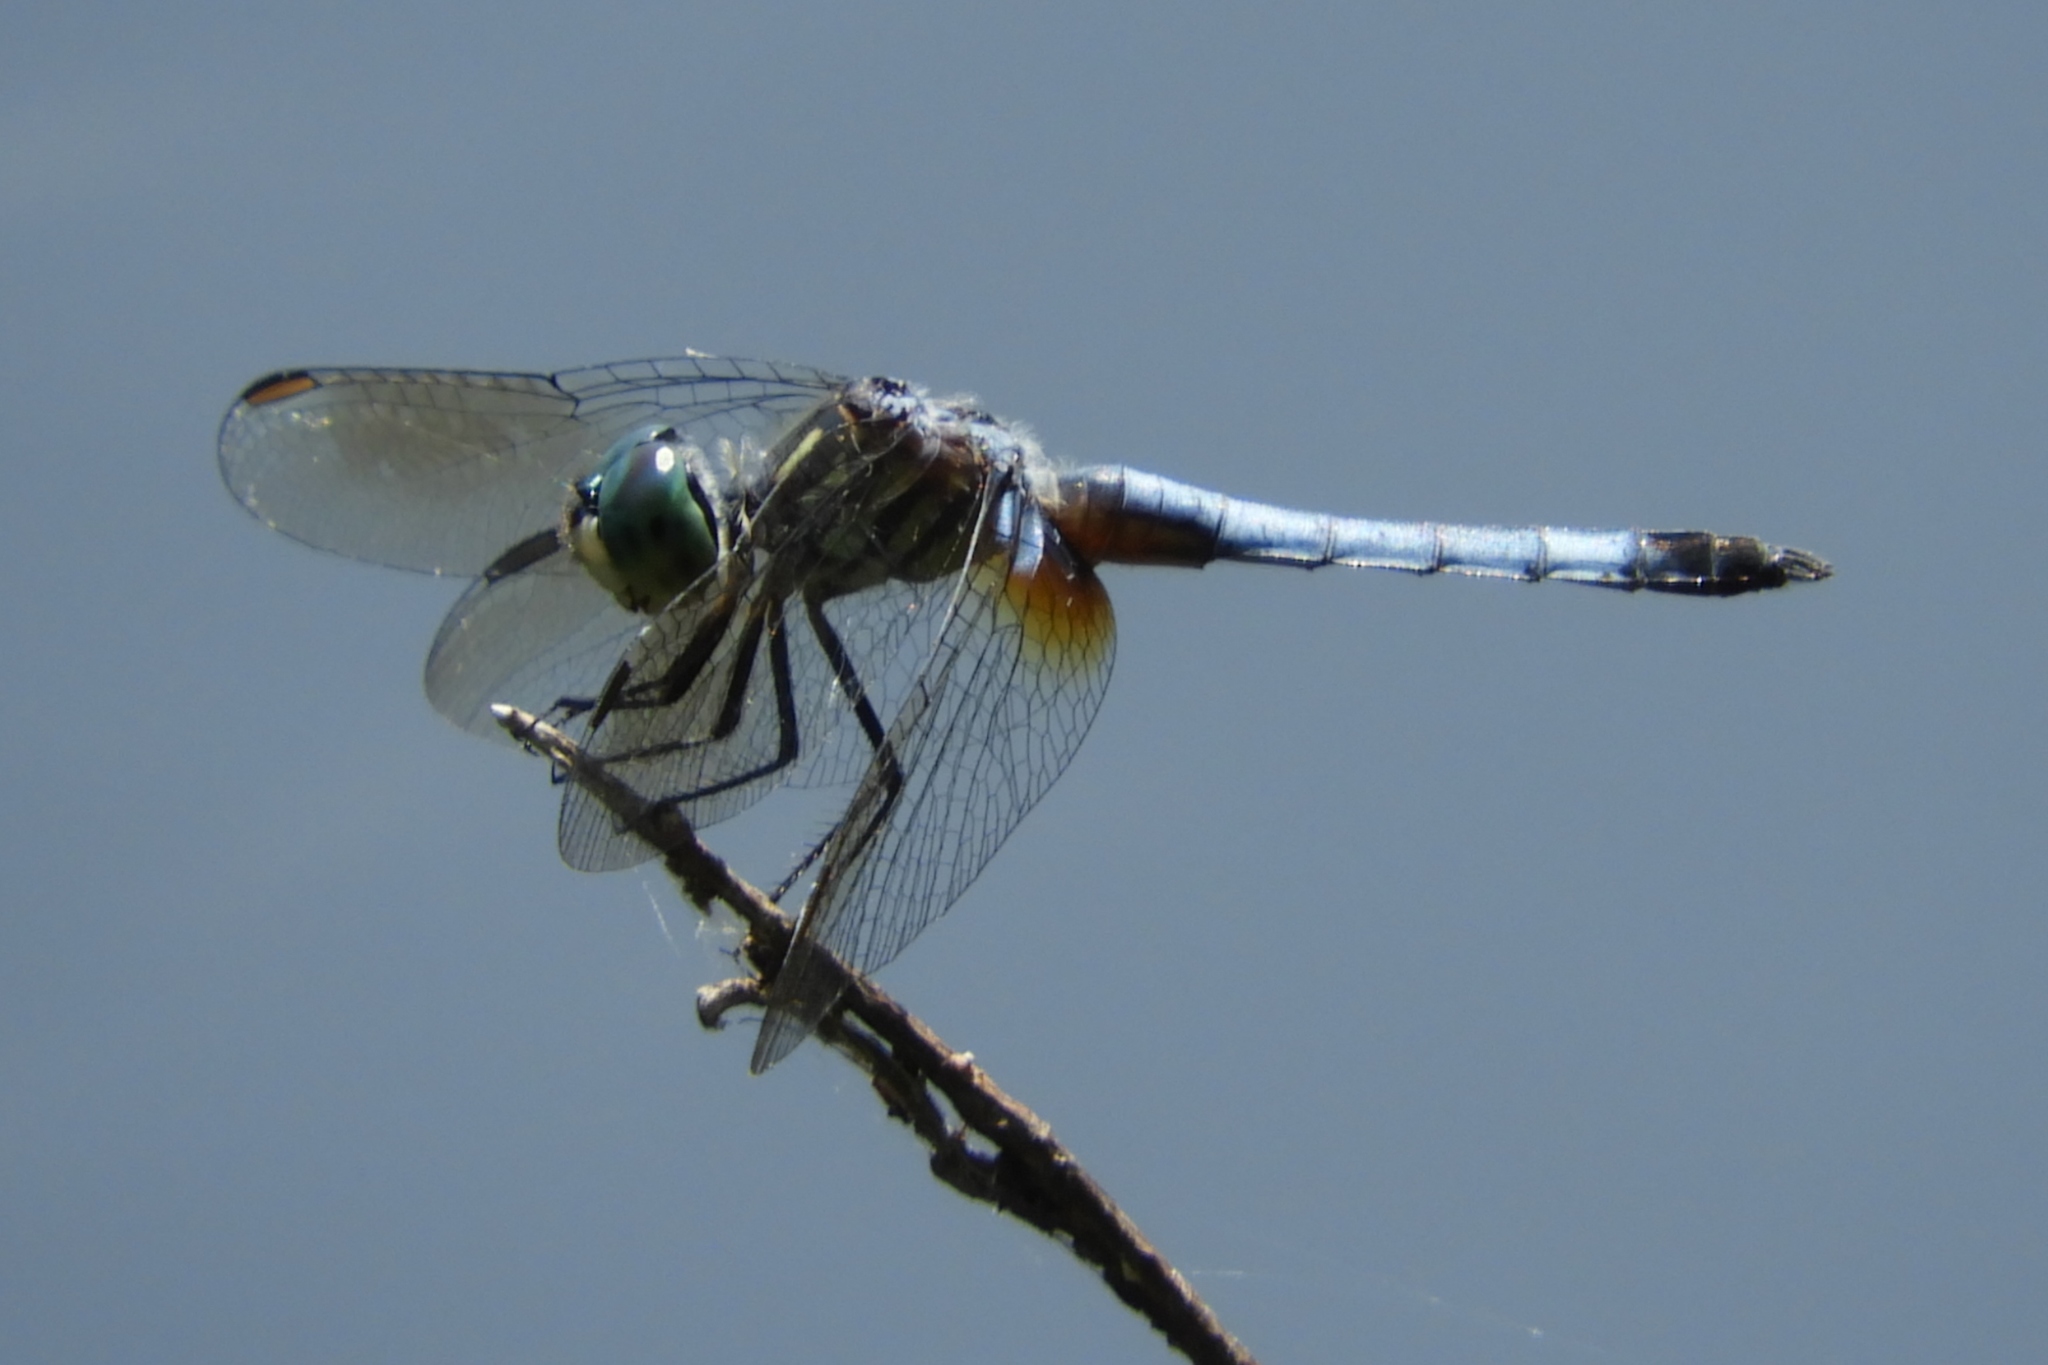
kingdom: Animalia
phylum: Arthropoda
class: Insecta
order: Odonata
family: Libellulidae
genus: Pachydiplax
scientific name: Pachydiplax longipennis
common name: Blue dasher
